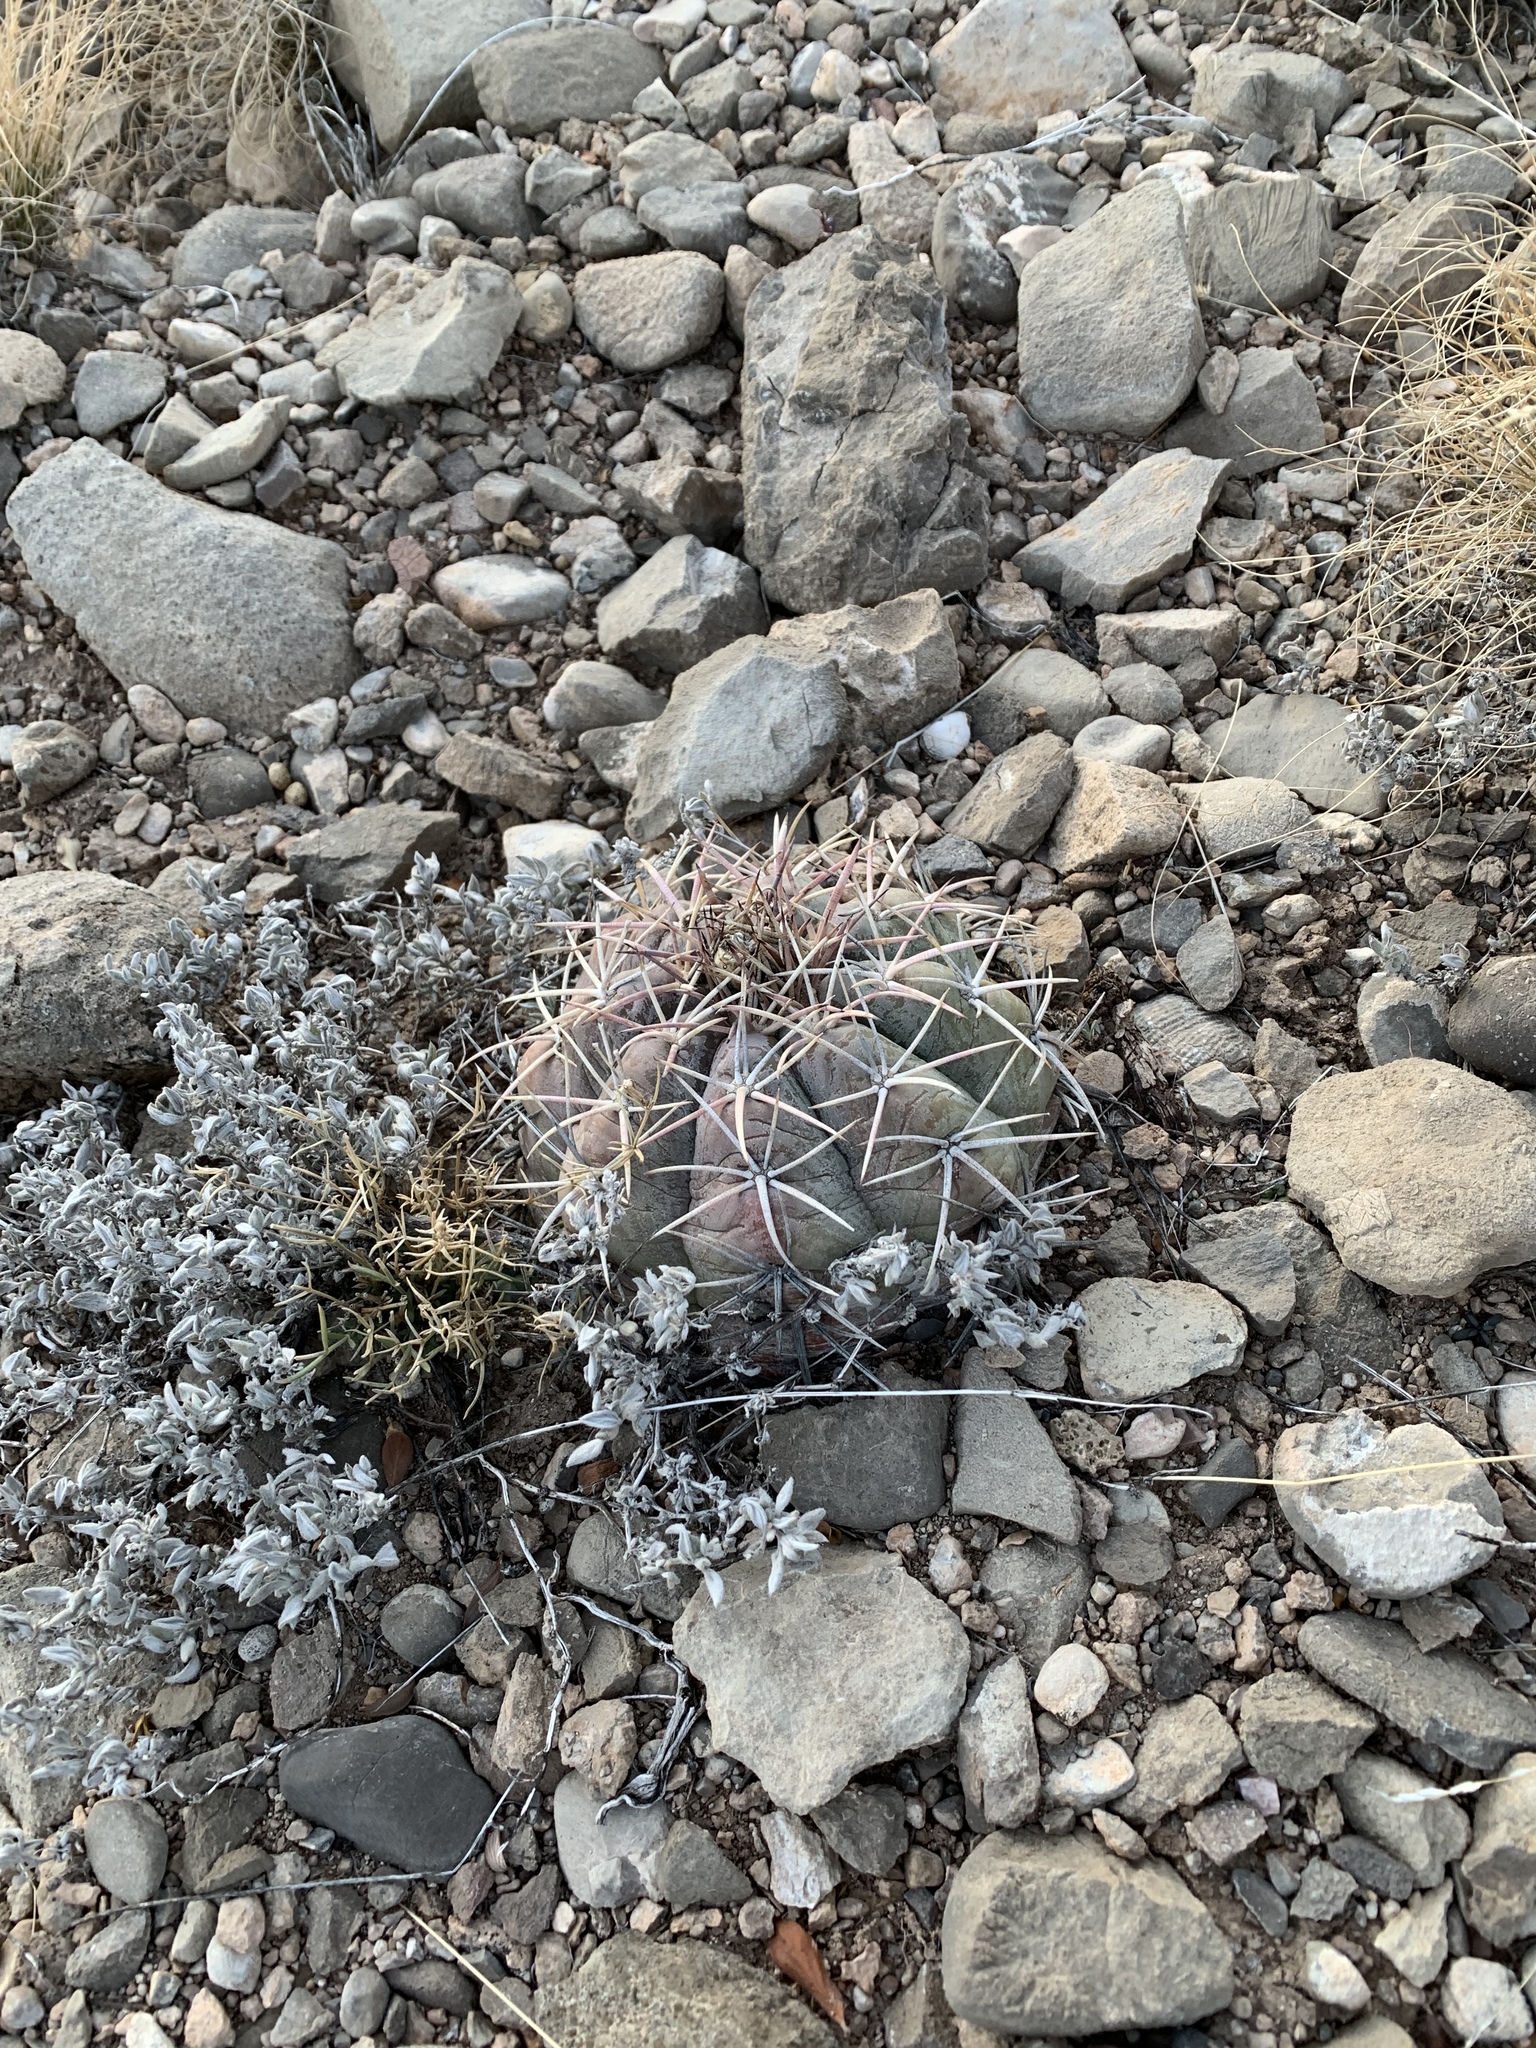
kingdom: Plantae
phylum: Tracheophyta
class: Magnoliopsida
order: Caryophyllales
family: Cactaceae
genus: Echinocactus
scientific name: Echinocactus horizonthalonius
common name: Devilshead
